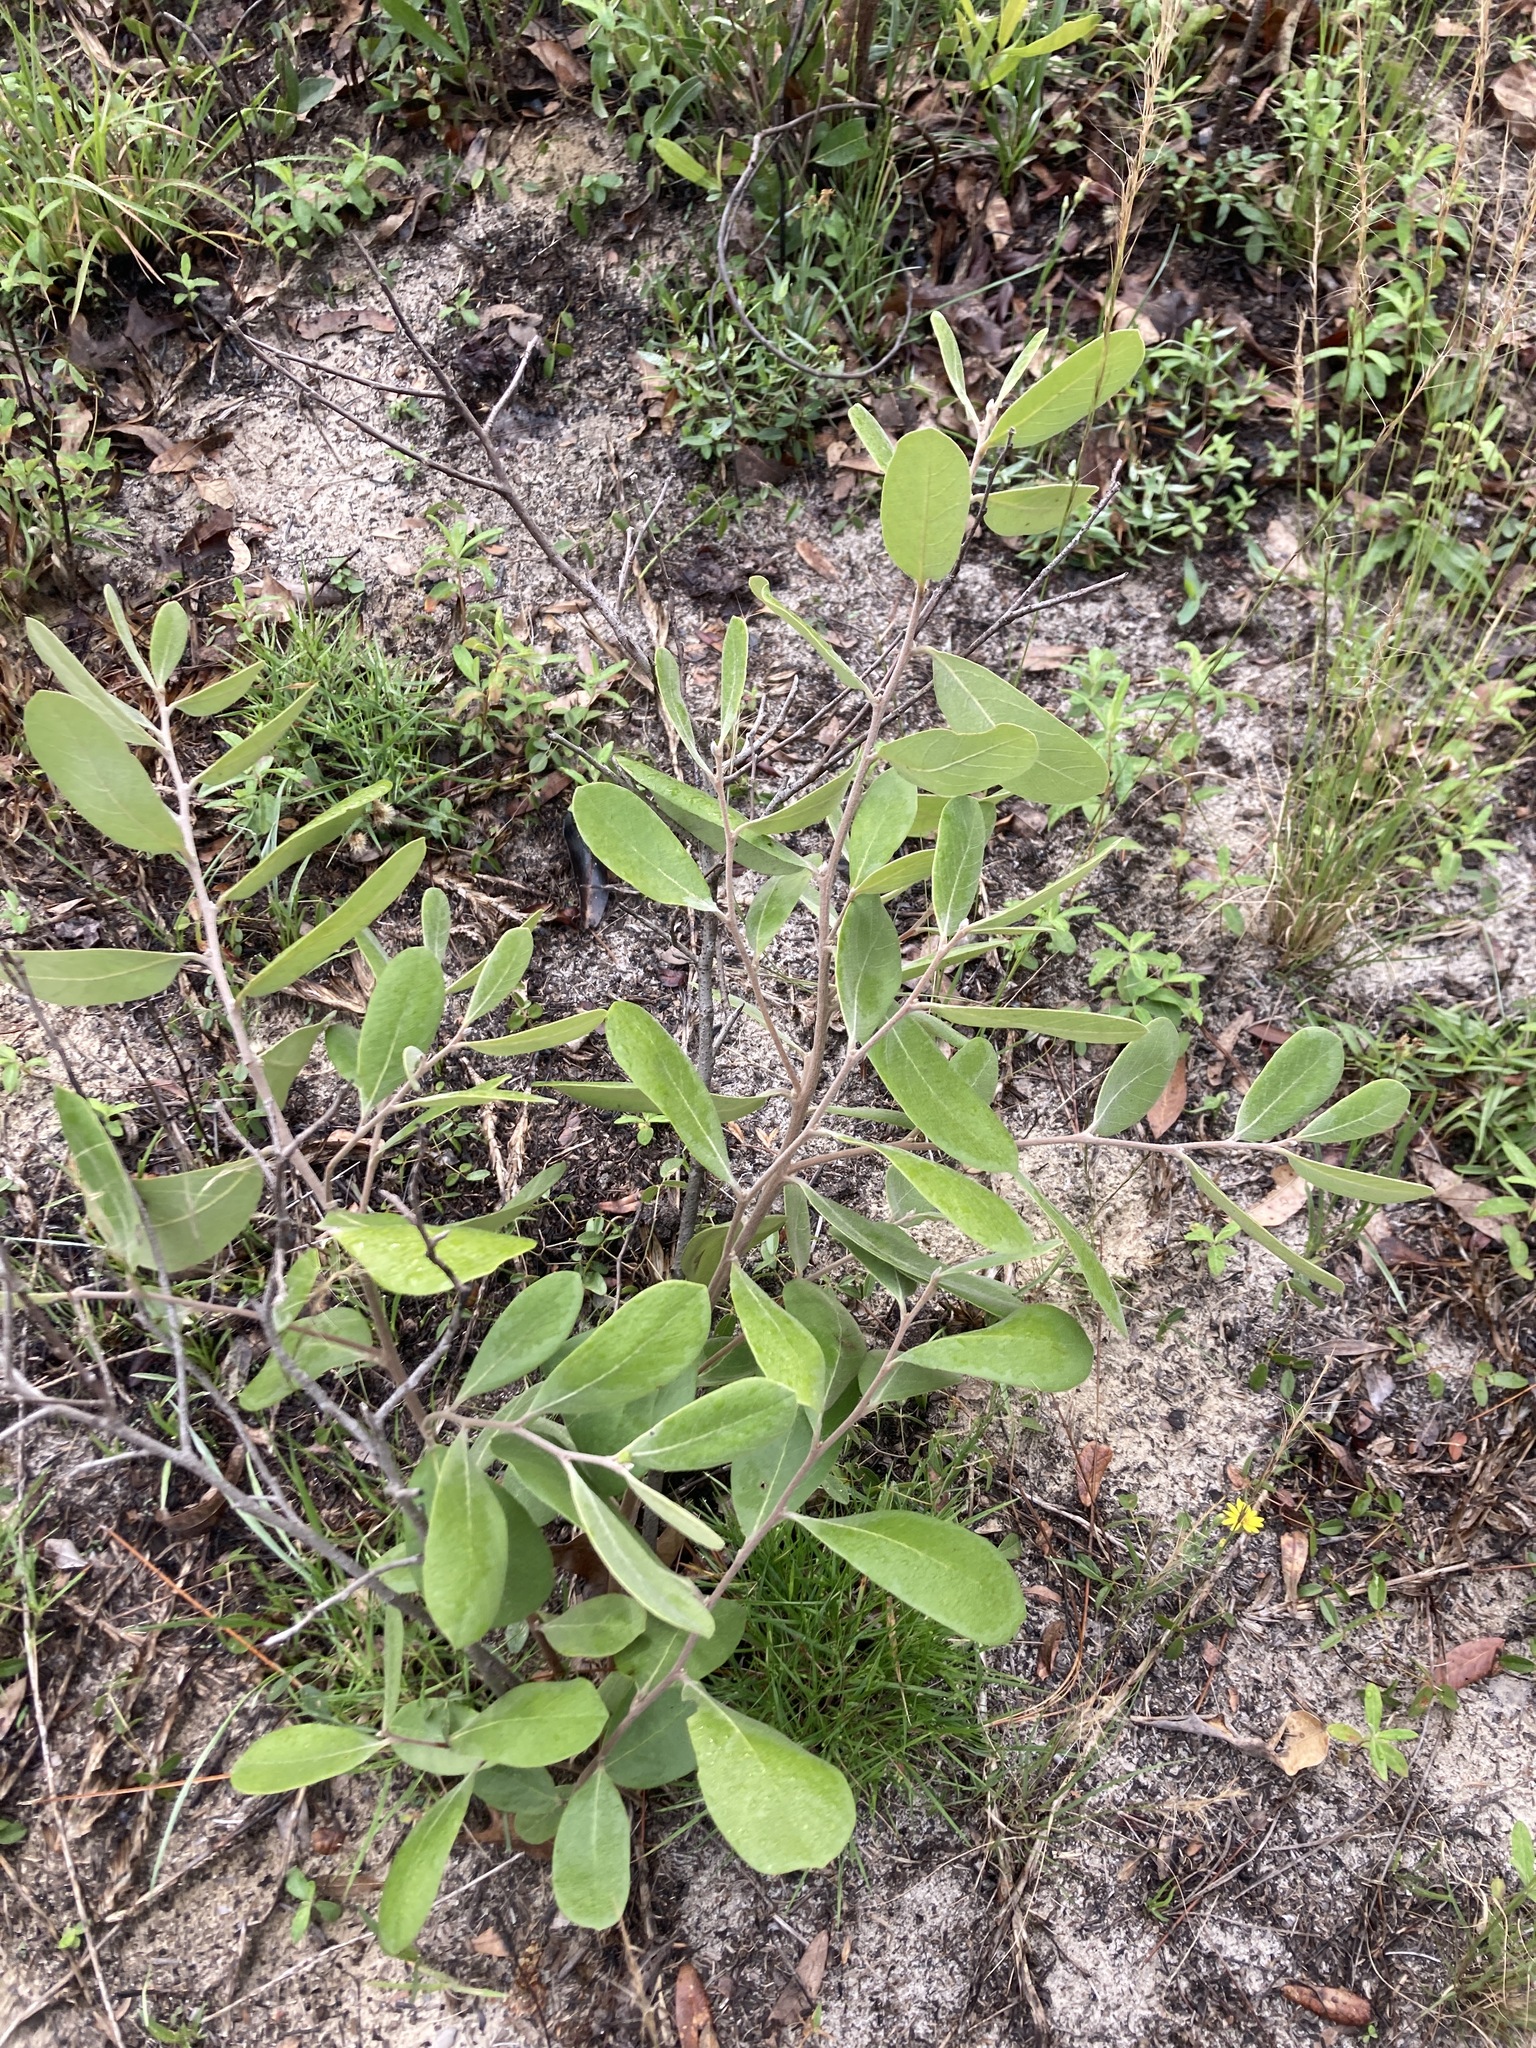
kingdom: Plantae
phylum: Tracheophyta
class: Magnoliopsida
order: Magnoliales
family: Annonaceae
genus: Asimina
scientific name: Asimina speciosa
